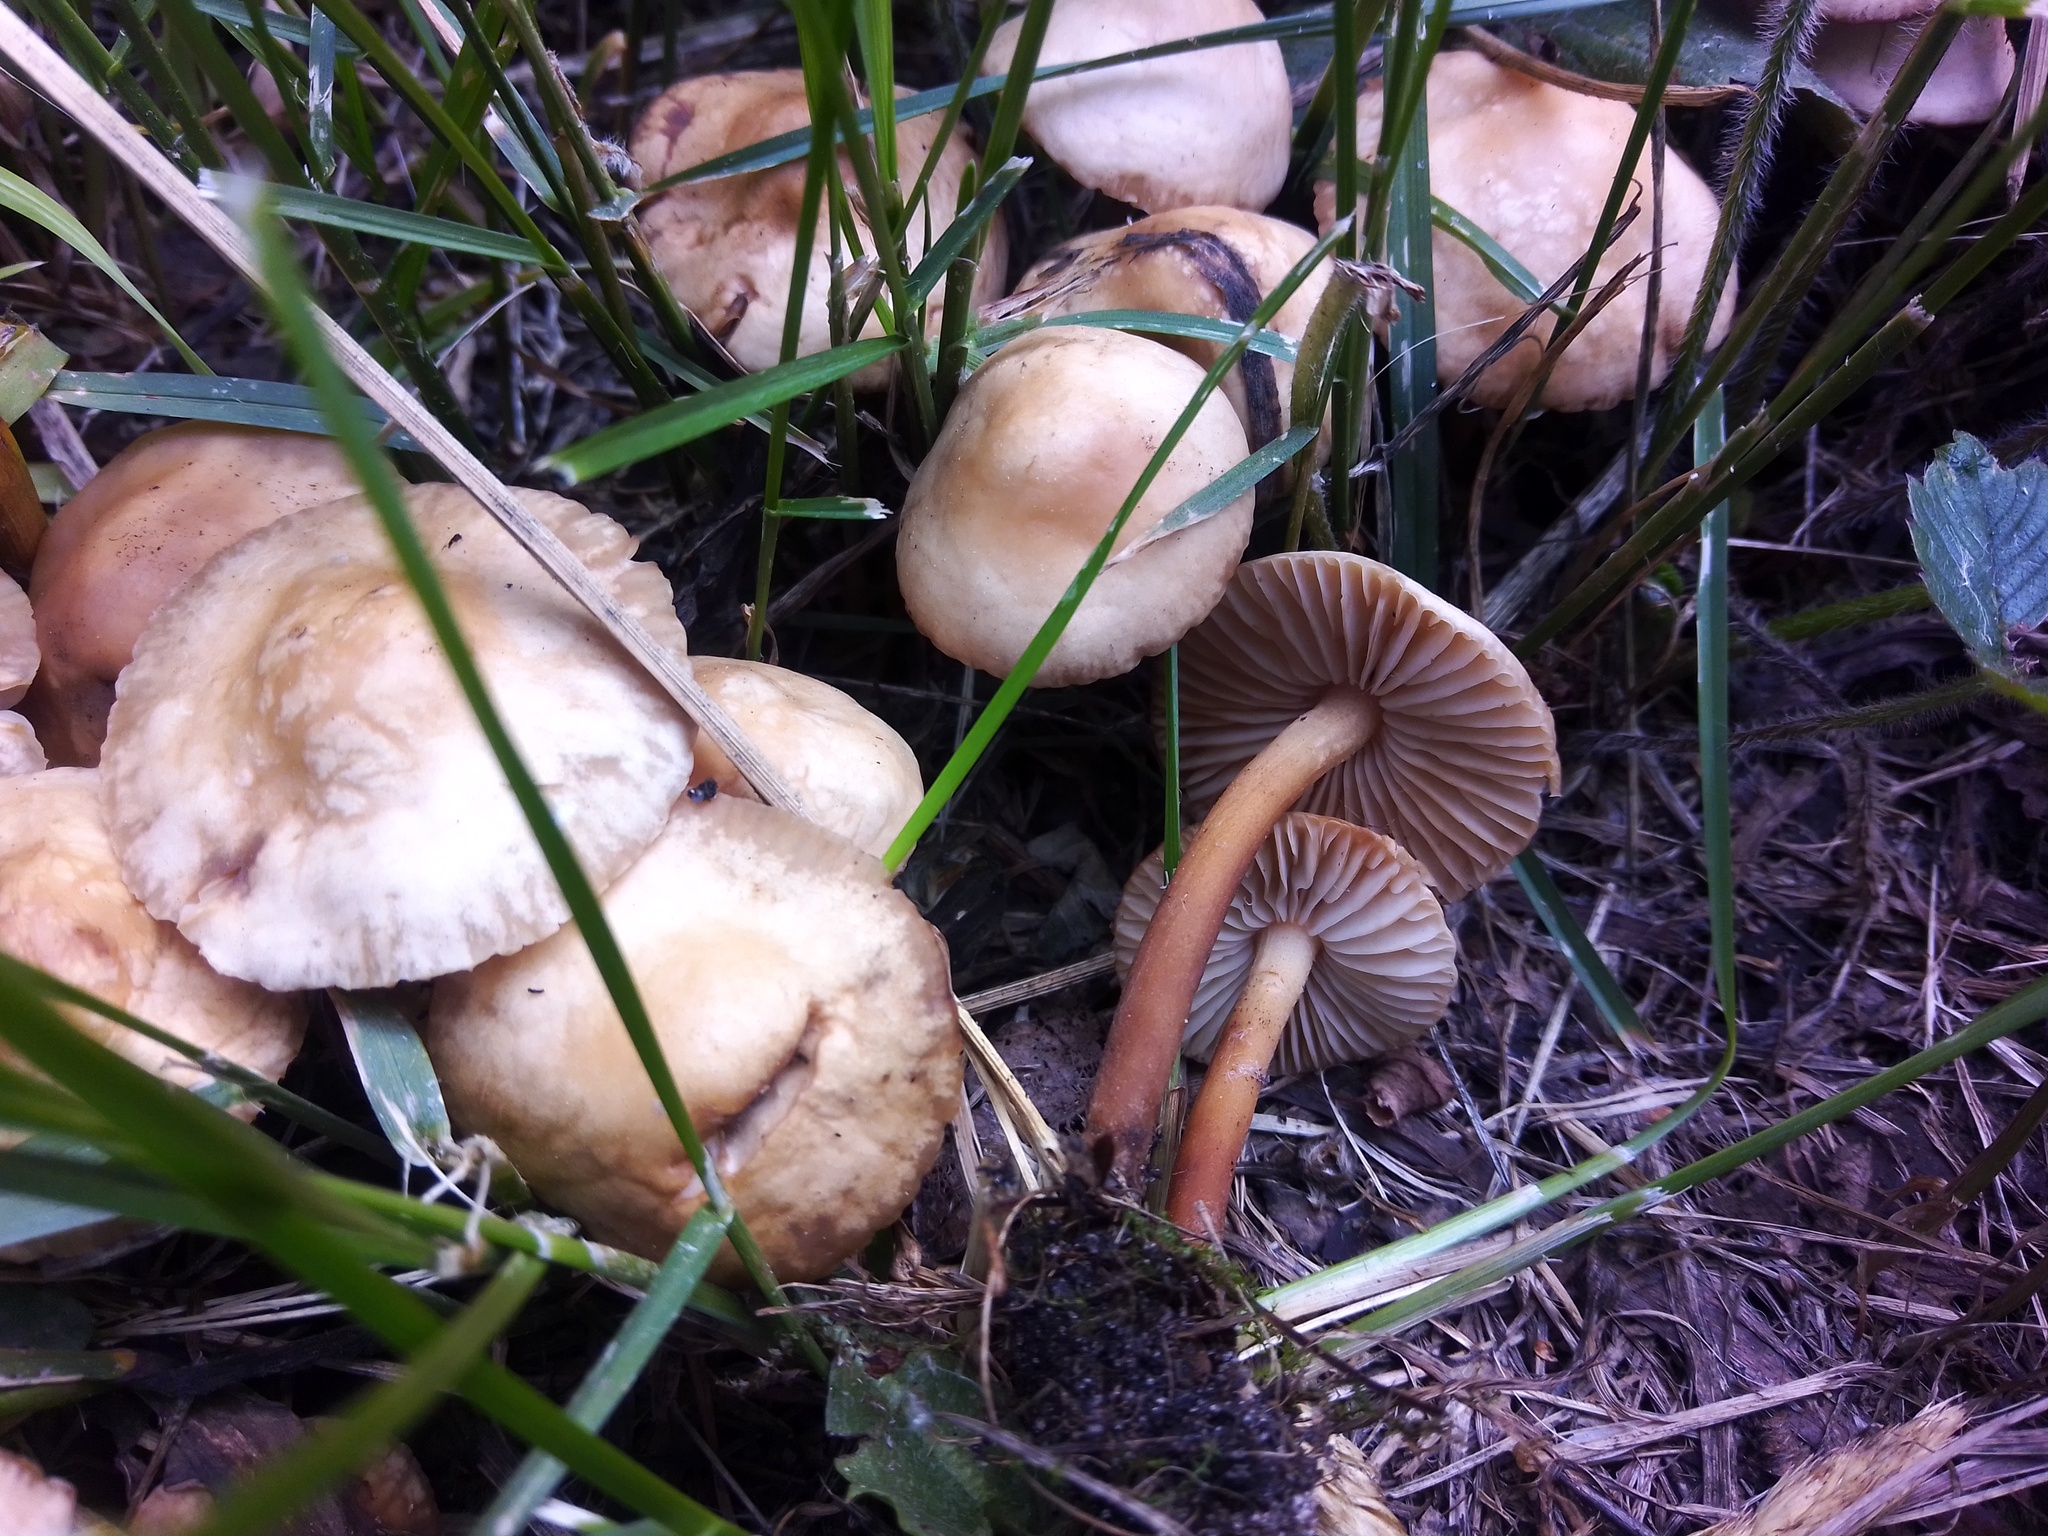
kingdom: Fungi
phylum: Basidiomycota
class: Agaricomycetes
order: Agaricales
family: Marasmiaceae
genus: Marasmius
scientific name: Marasmius oreades
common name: Fairy ring champignon
